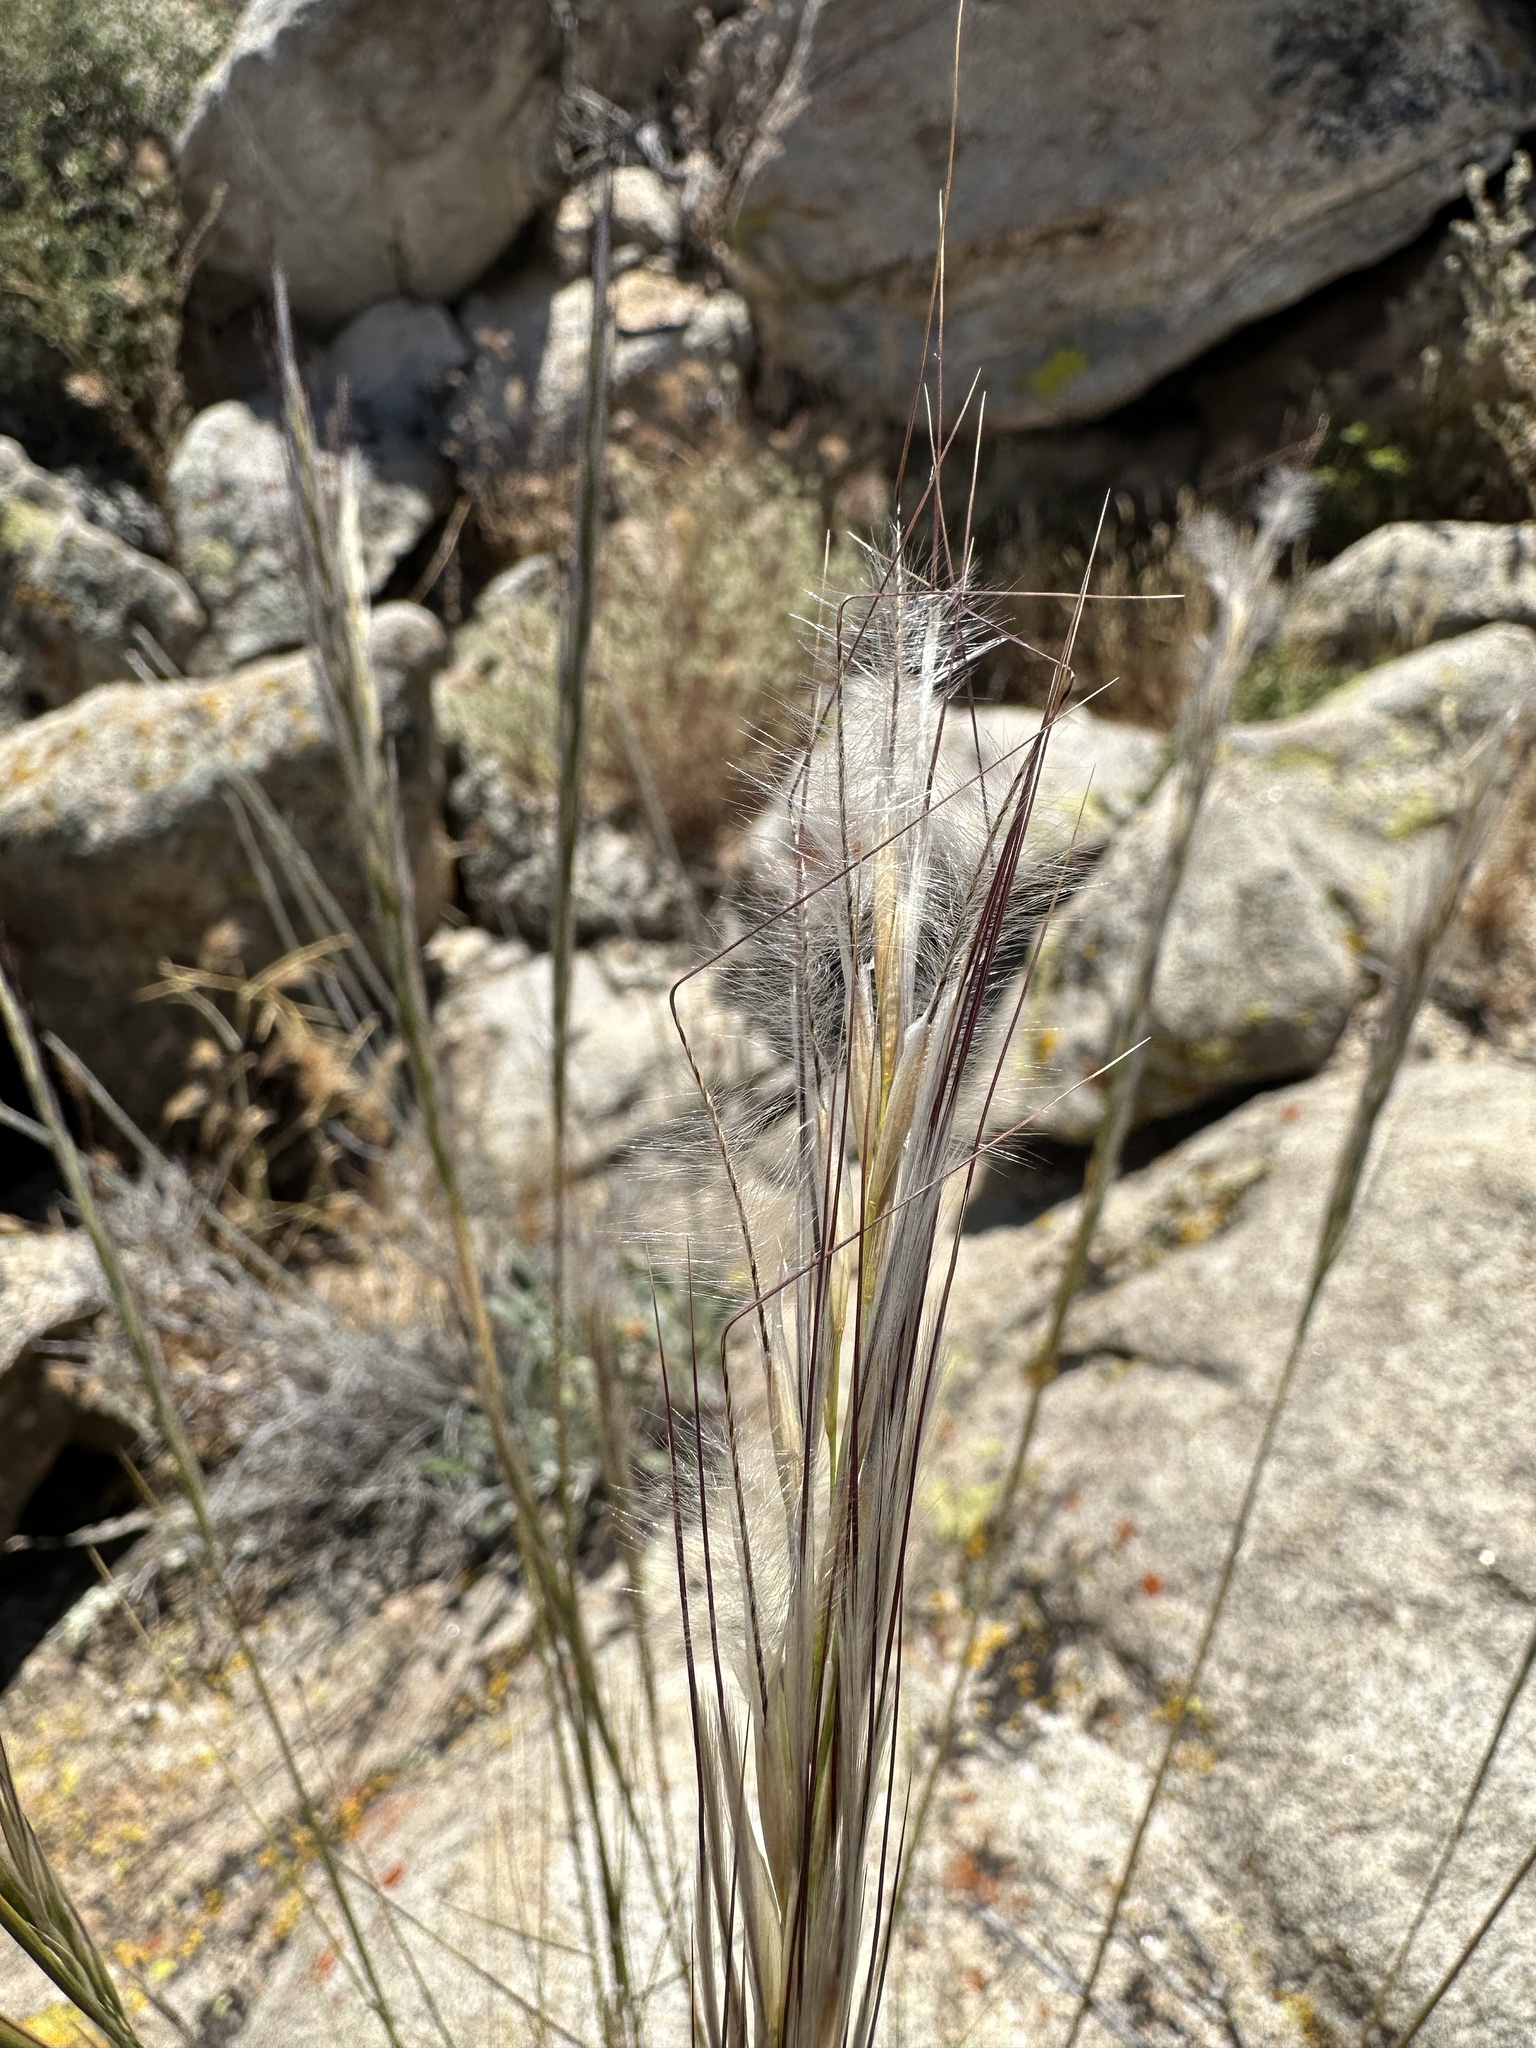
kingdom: Plantae
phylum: Tracheophyta
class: Liliopsida
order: Poales
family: Poaceae
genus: Pappostipa
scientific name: Pappostipa speciosa
